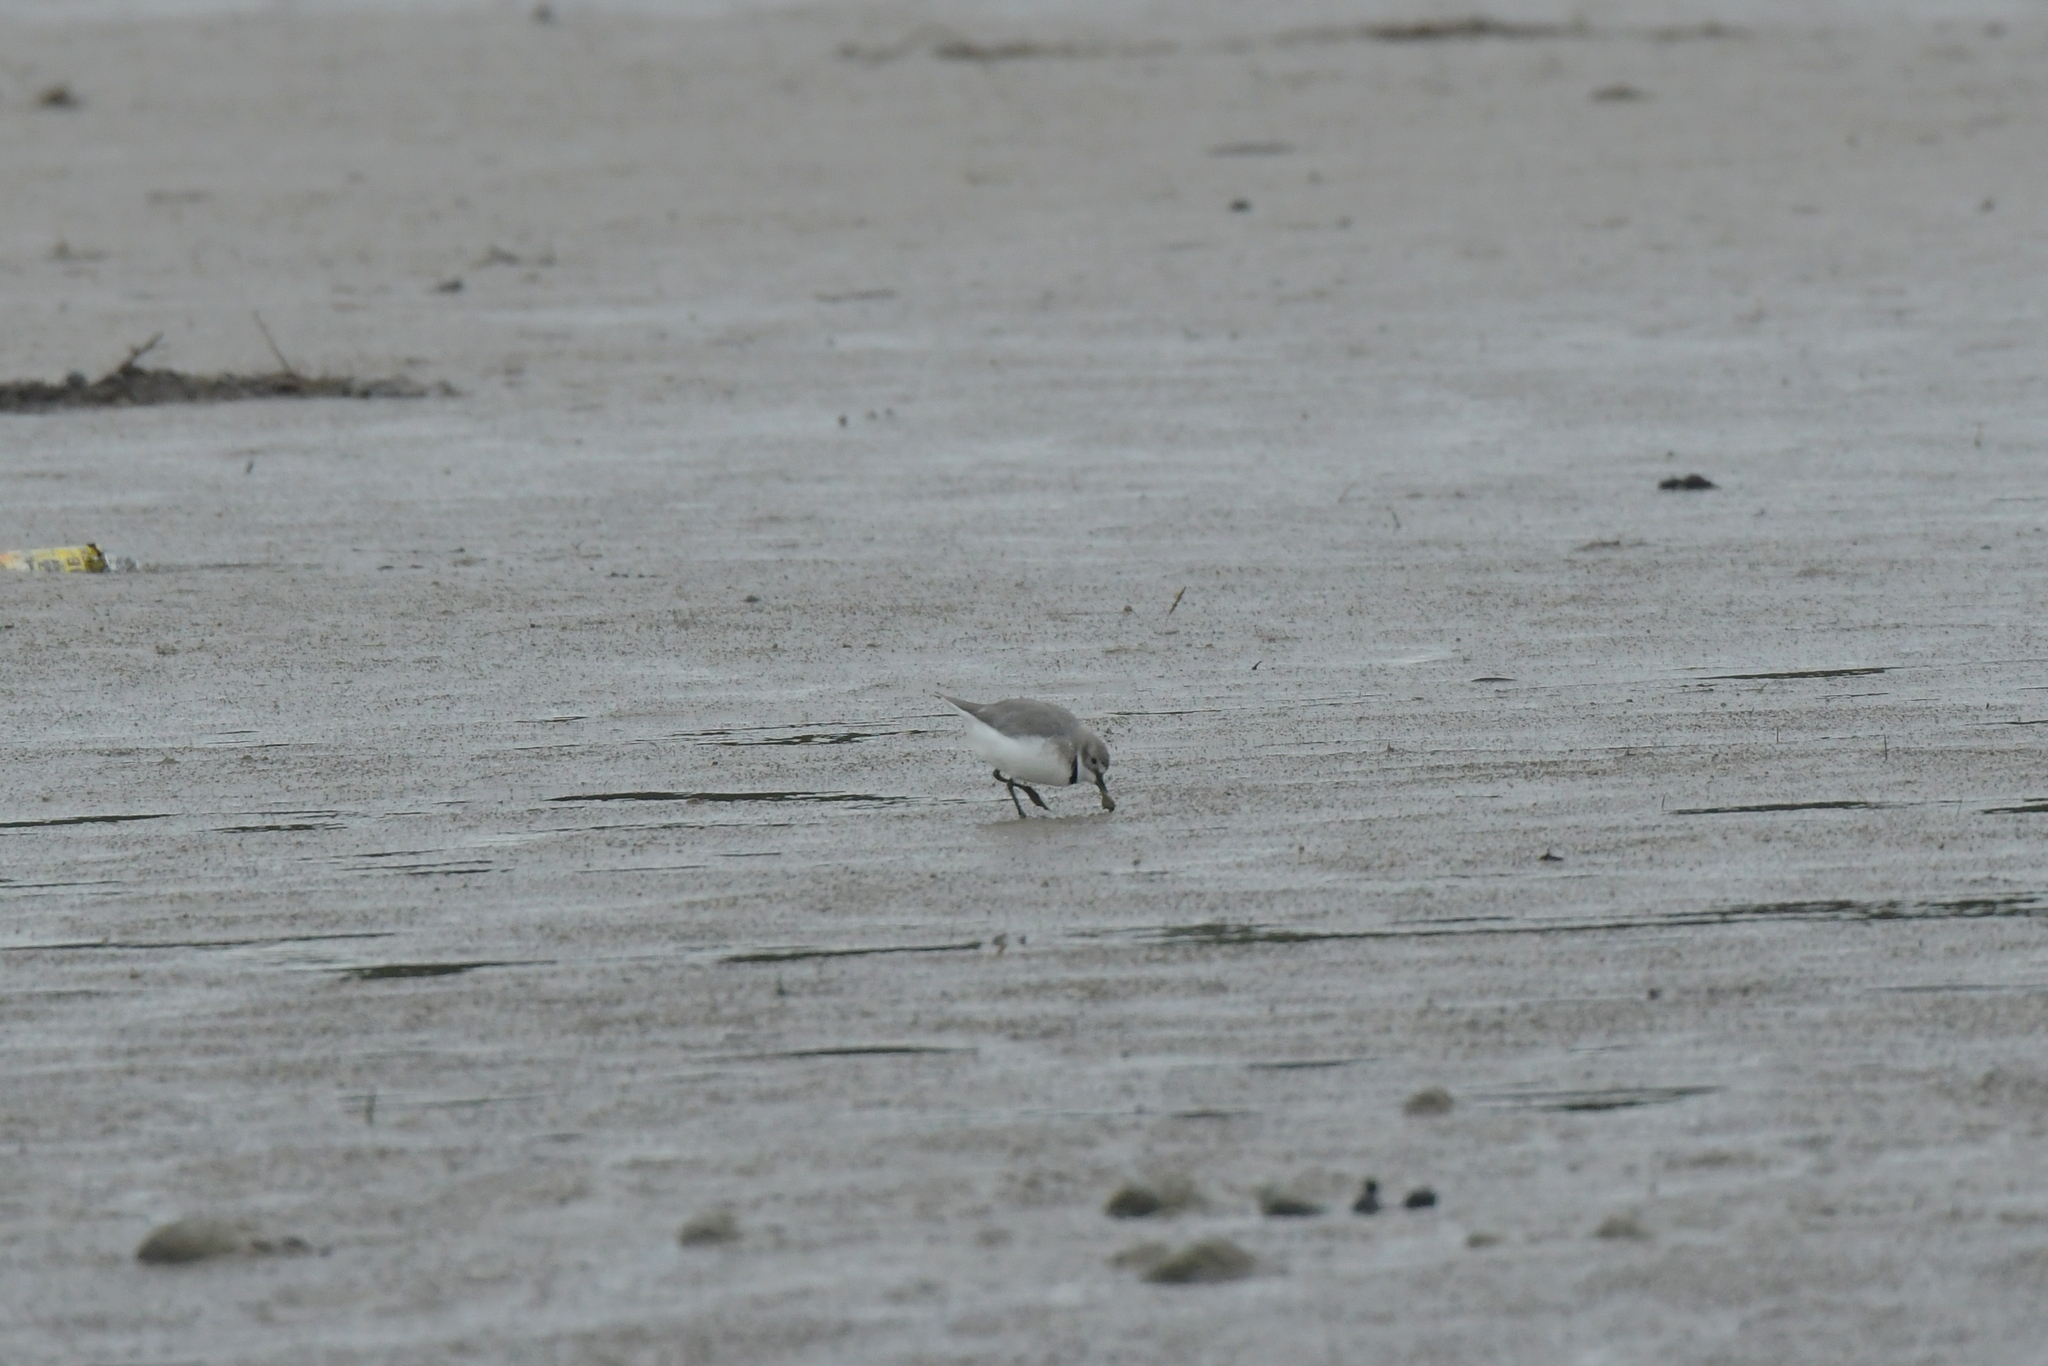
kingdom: Animalia
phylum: Chordata
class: Aves
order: Charadriiformes
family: Charadriidae
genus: Anarhynchus
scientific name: Anarhynchus frontalis
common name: Wrybill
